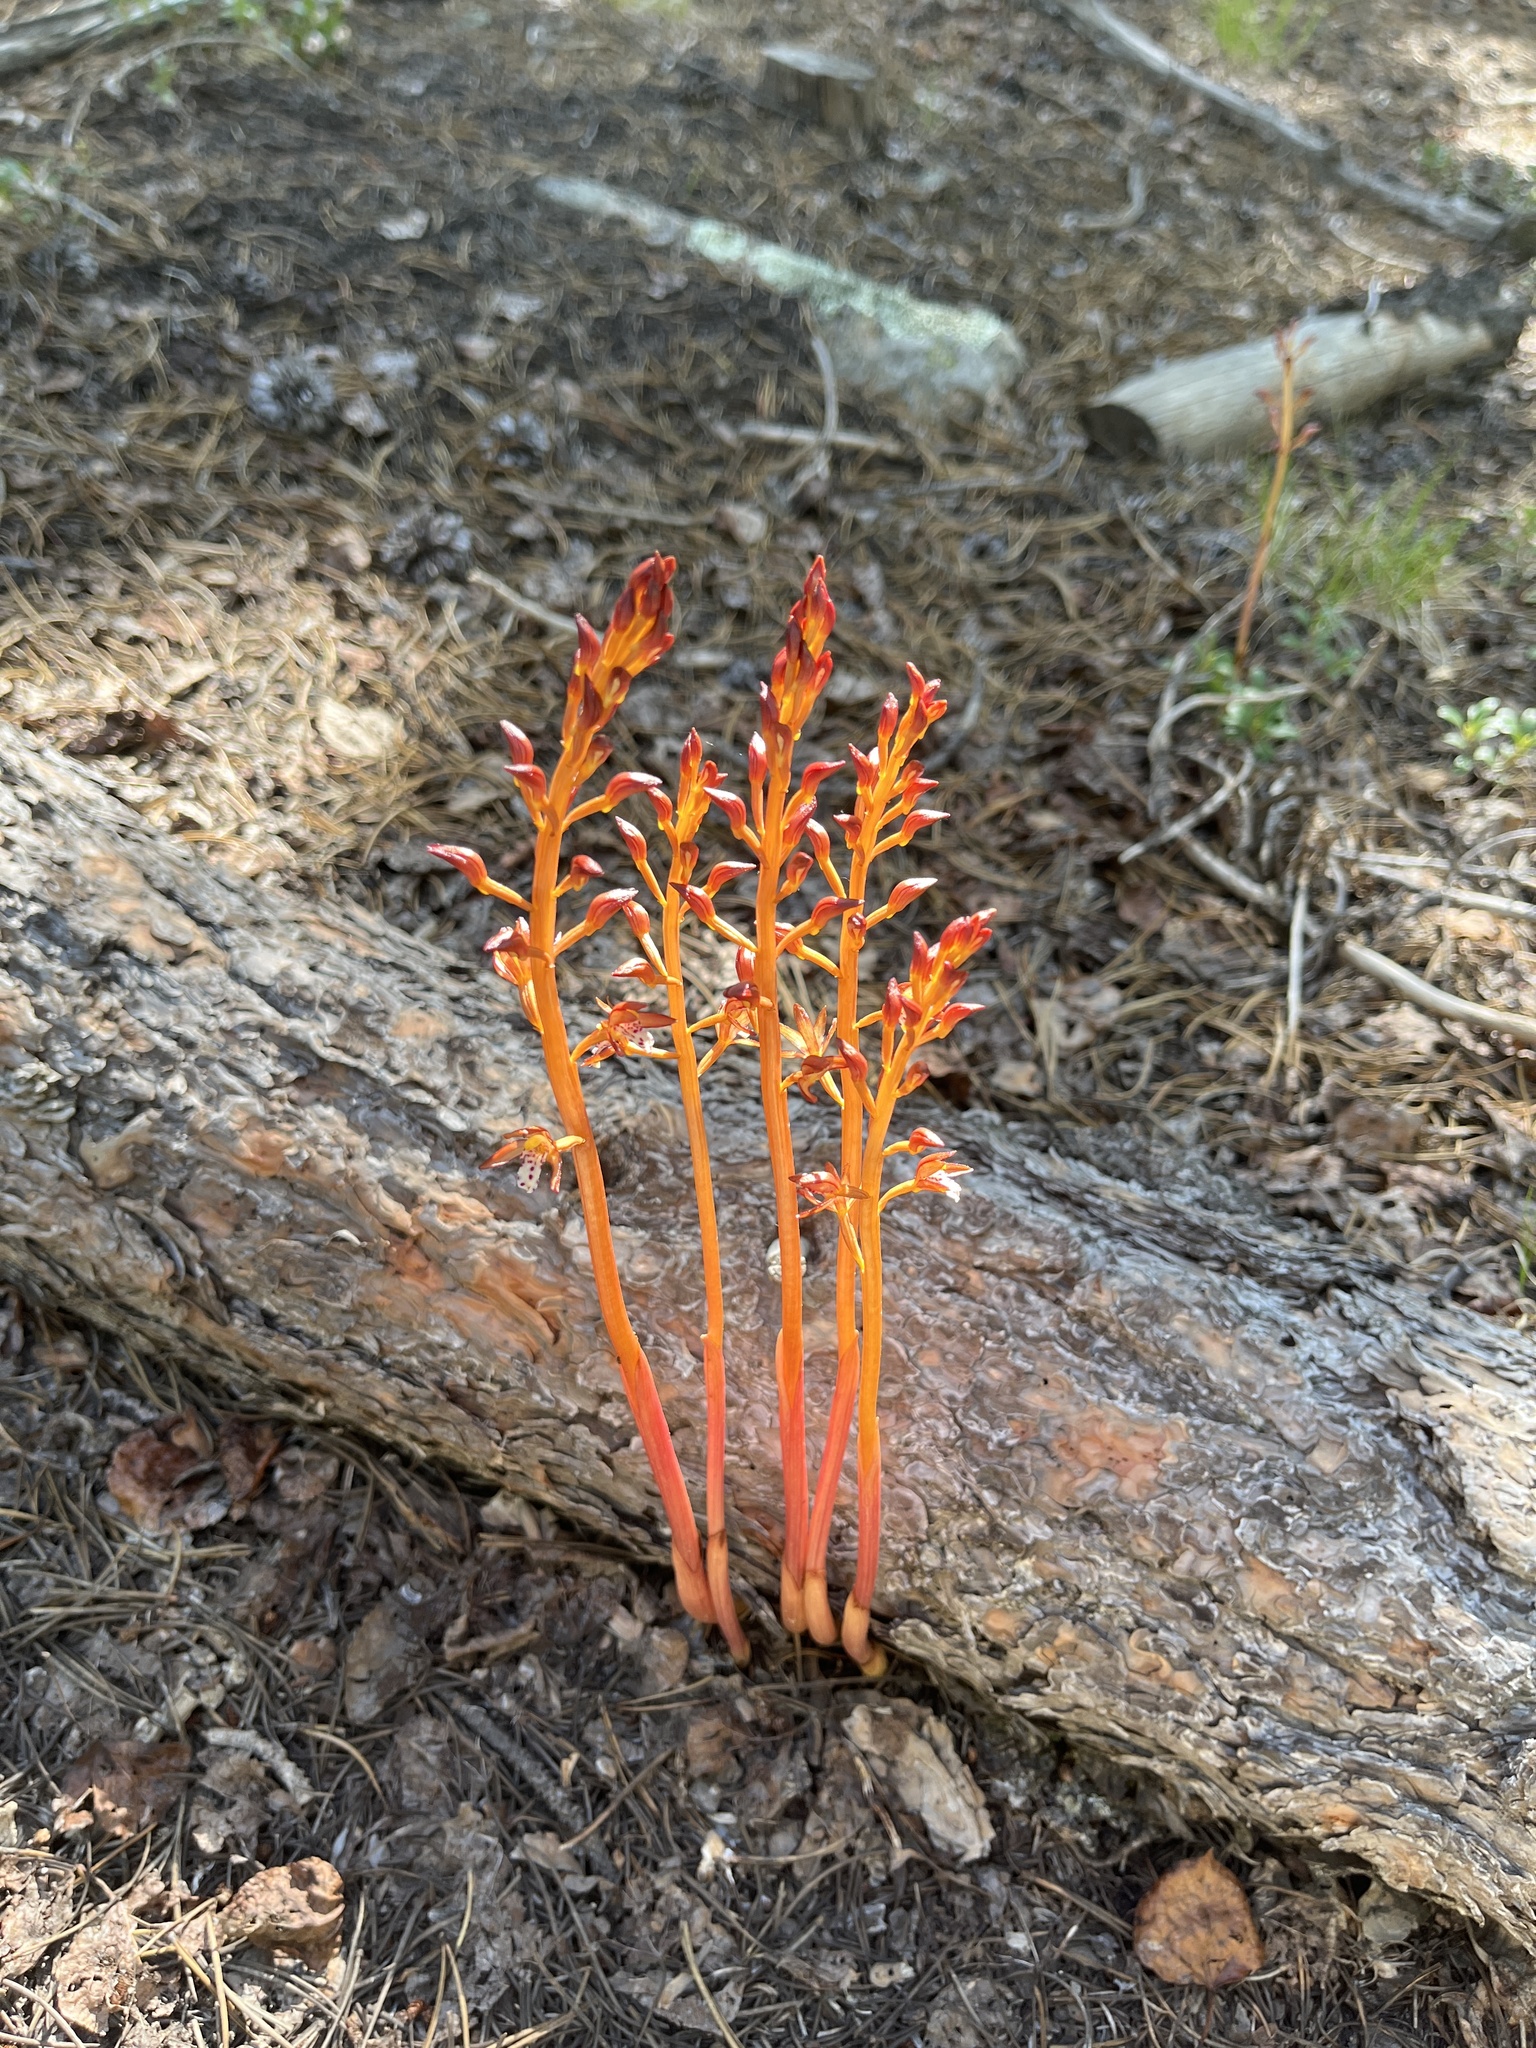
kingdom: Plantae
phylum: Tracheophyta
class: Liliopsida
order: Asparagales
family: Orchidaceae
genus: Corallorhiza
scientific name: Corallorhiza maculata
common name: Spotted coralroot
